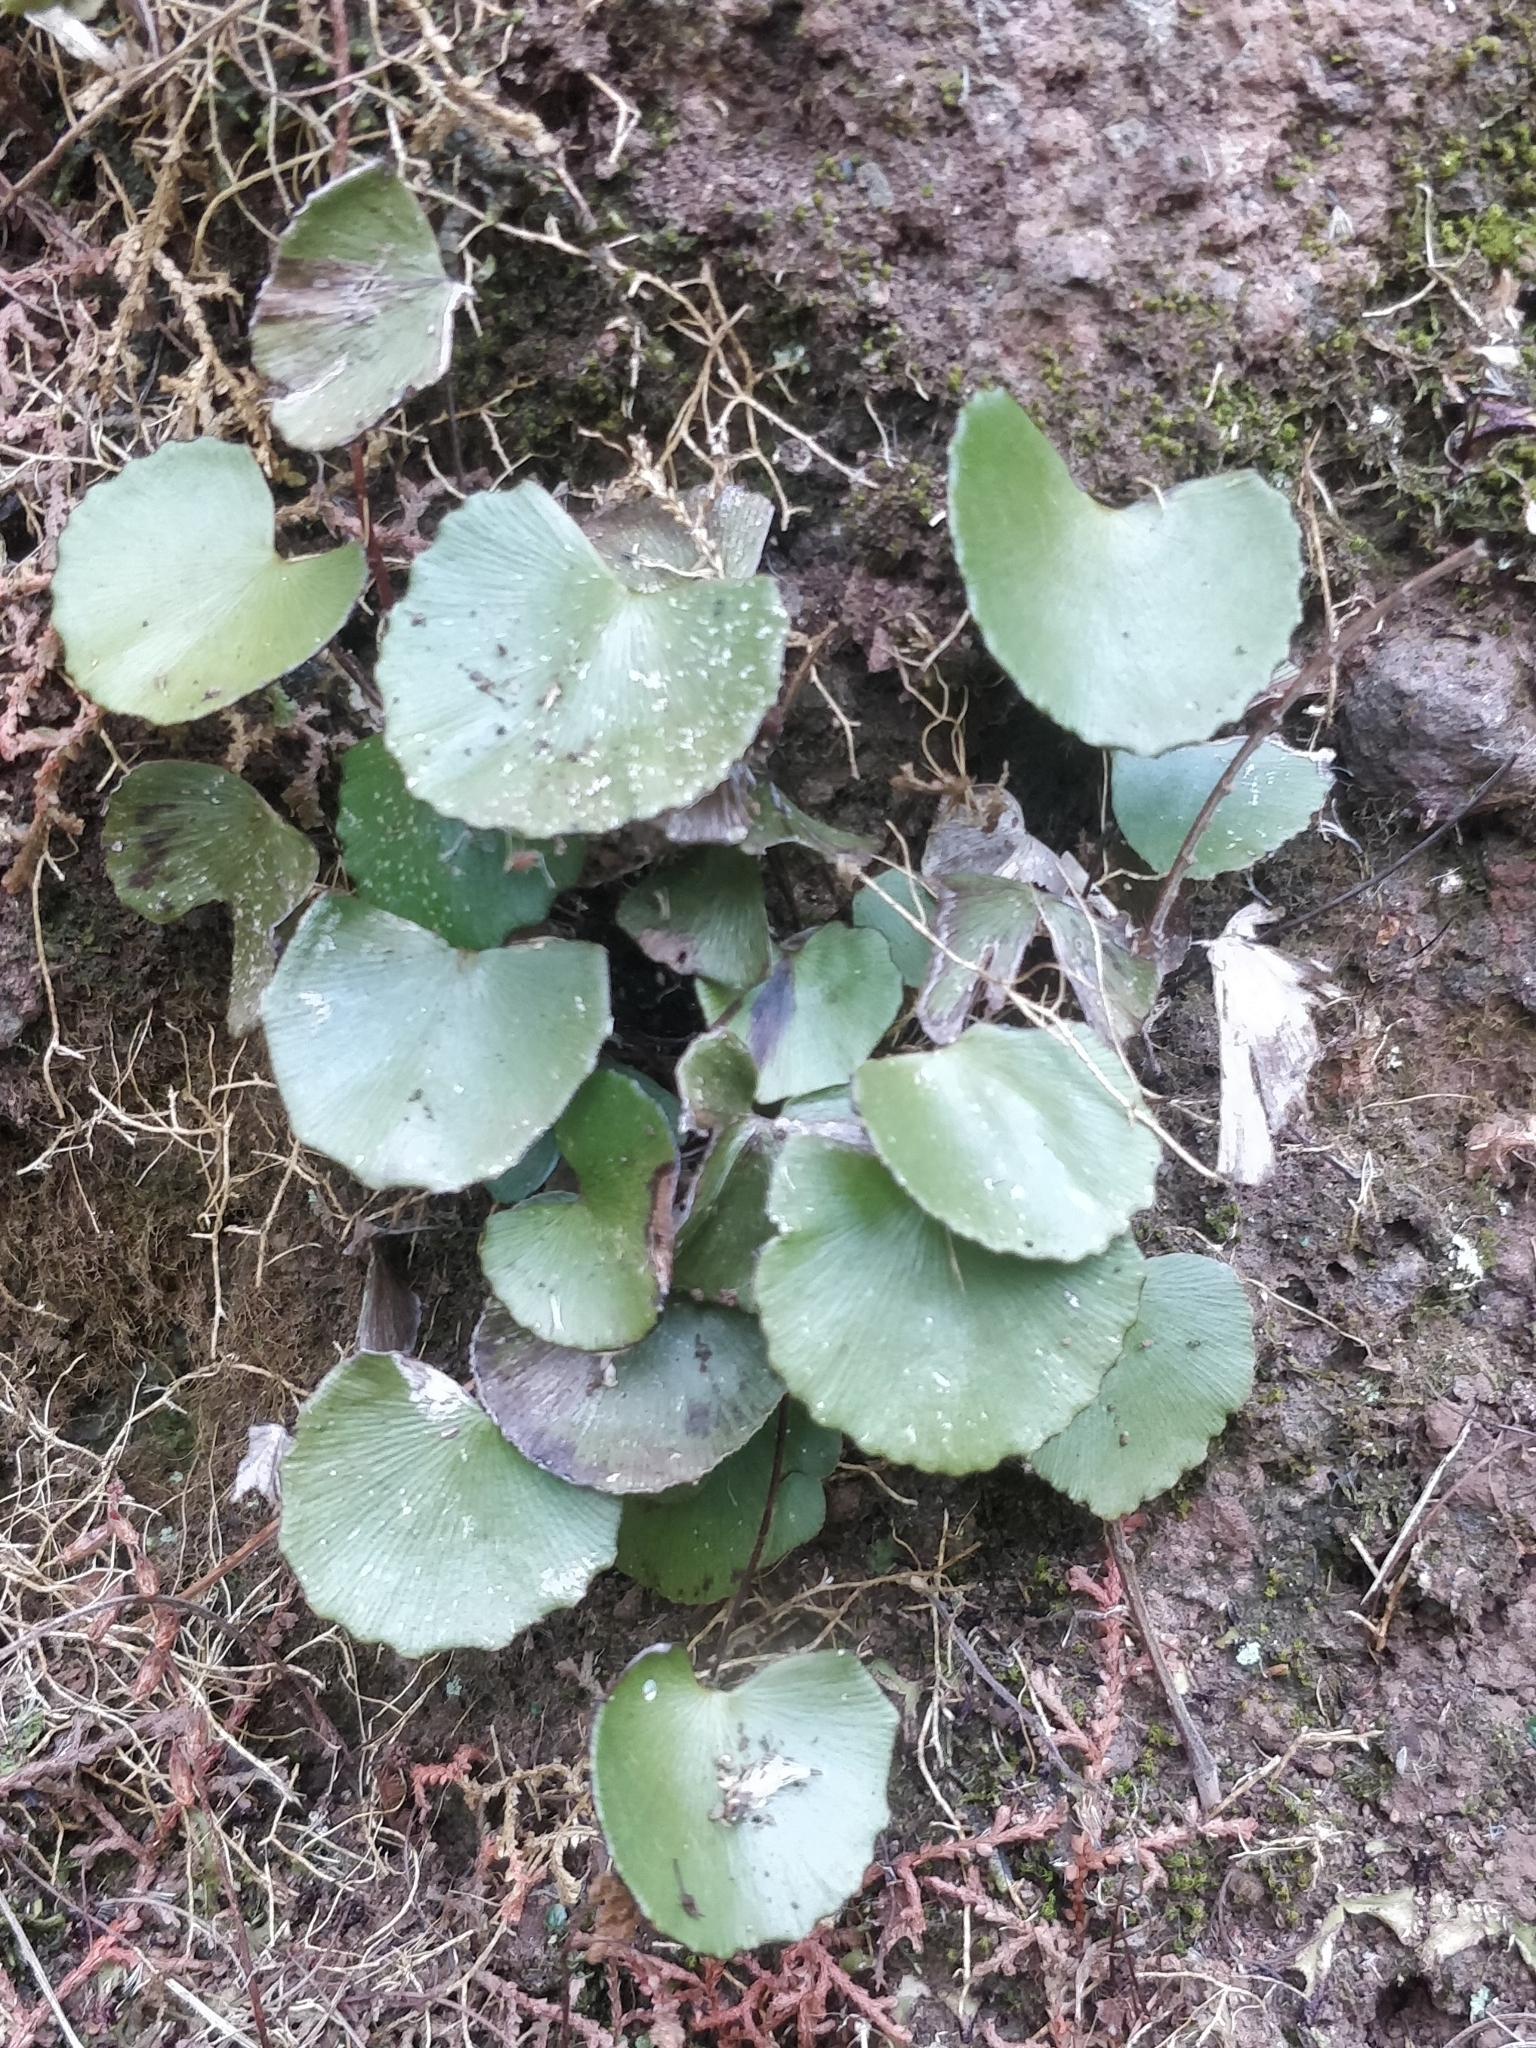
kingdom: Plantae
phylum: Tracheophyta
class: Polypodiopsida
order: Polypodiales
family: Pteridaceae
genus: Adiantum
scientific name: Adiantum reniforme
